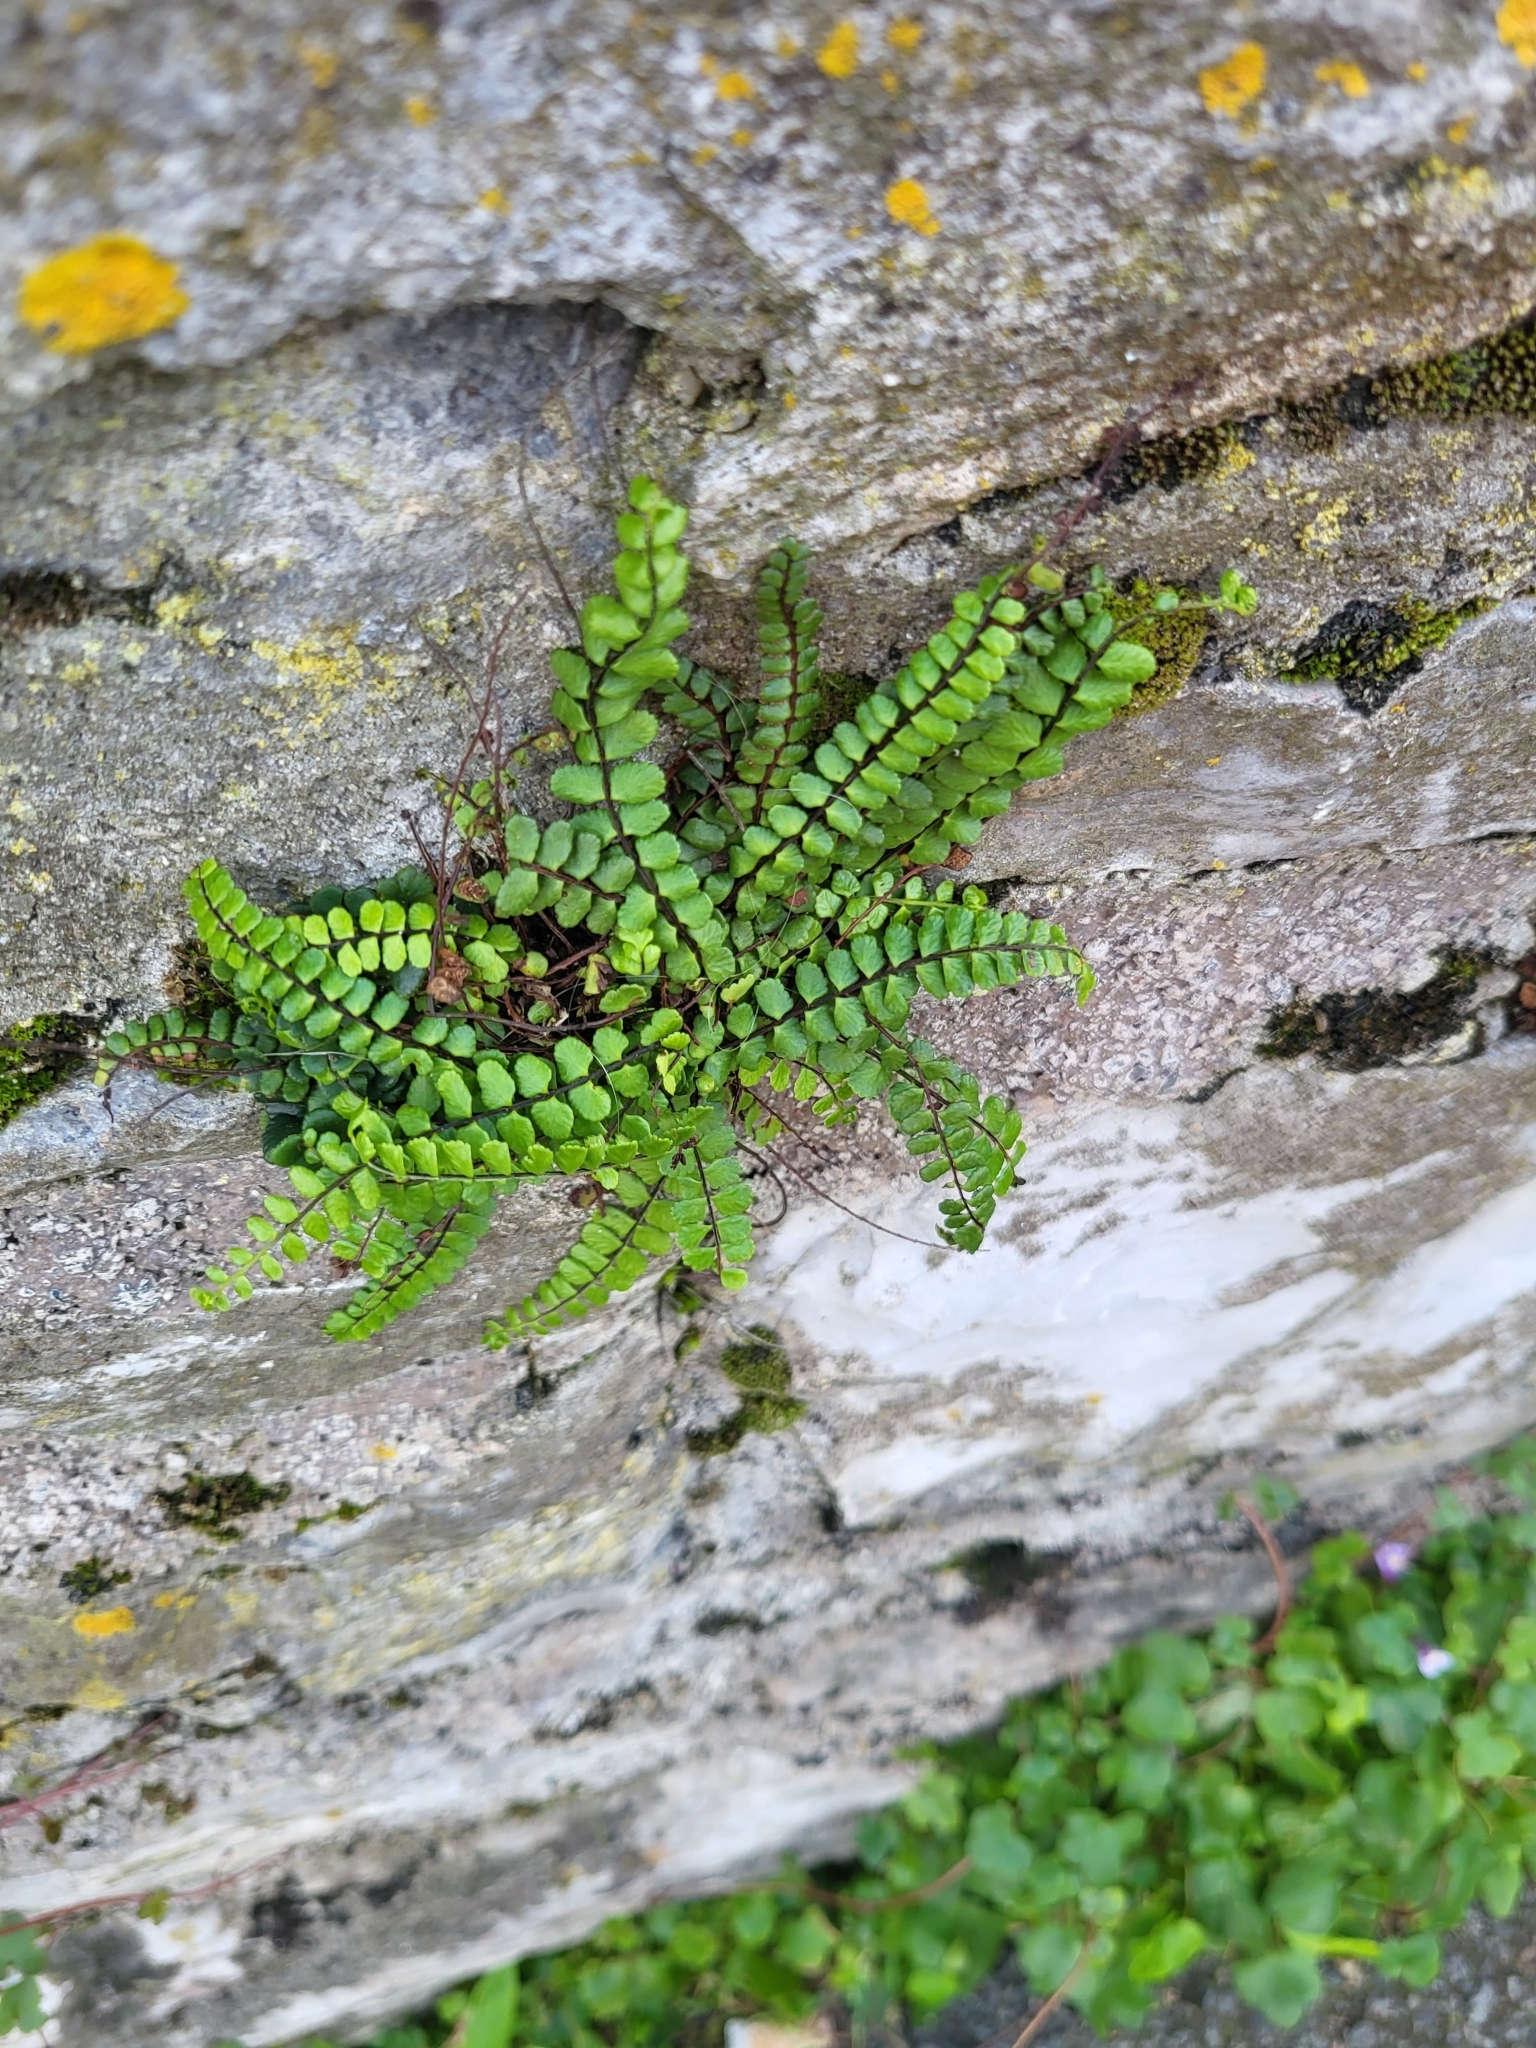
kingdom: Plantae
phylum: Tracheophyta
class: Polypodiopsida
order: Polypodiales
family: Aspleniaceae
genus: Asplenium
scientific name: Asplenium trichomanes
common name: Maidenhair spleenwort
